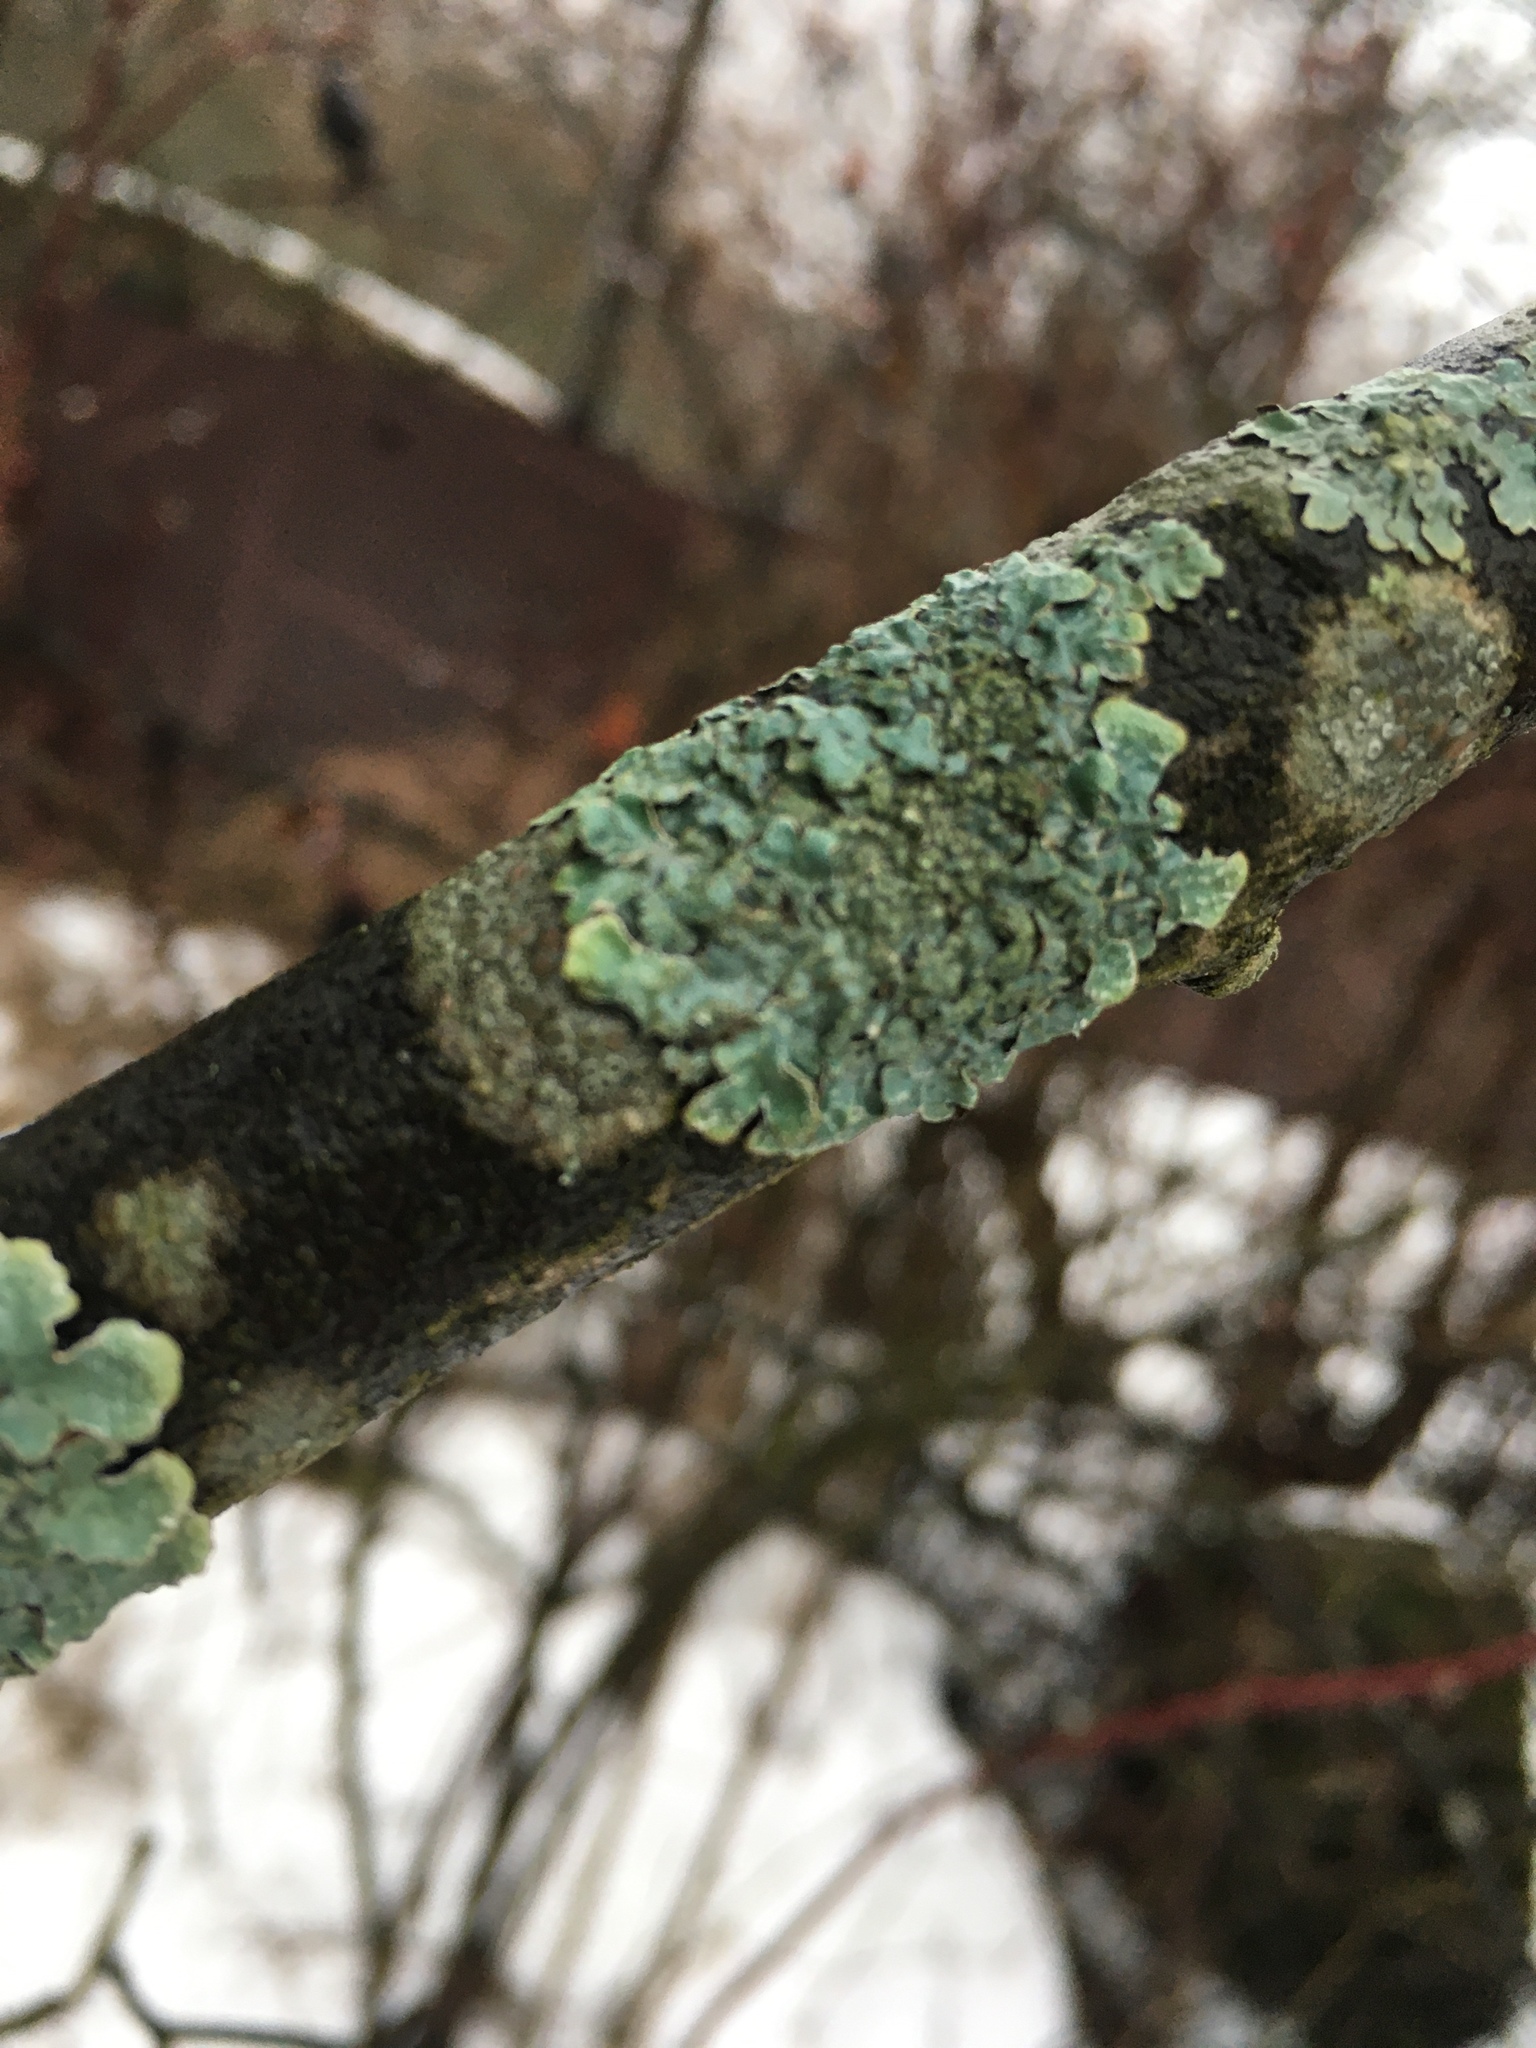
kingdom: Fungi
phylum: Ascomycota
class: Lecanoromycetes
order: Lecanorales
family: Parmeliaceae
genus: Parmelia
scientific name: Parmelia sulcata
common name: Netted shield lichen
